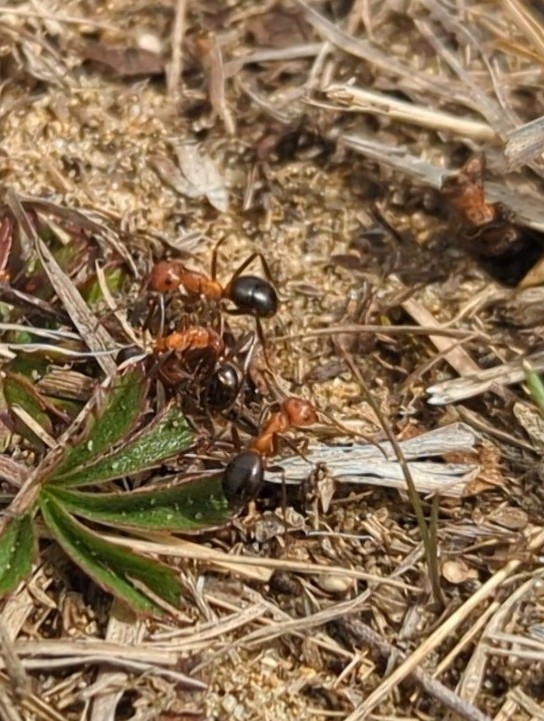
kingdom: Animalia
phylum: Arthropoda
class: Insecta
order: Hymenoptera
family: Formicidae
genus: Formica
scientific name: Formica exsectoides
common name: Allegheny mound ant
